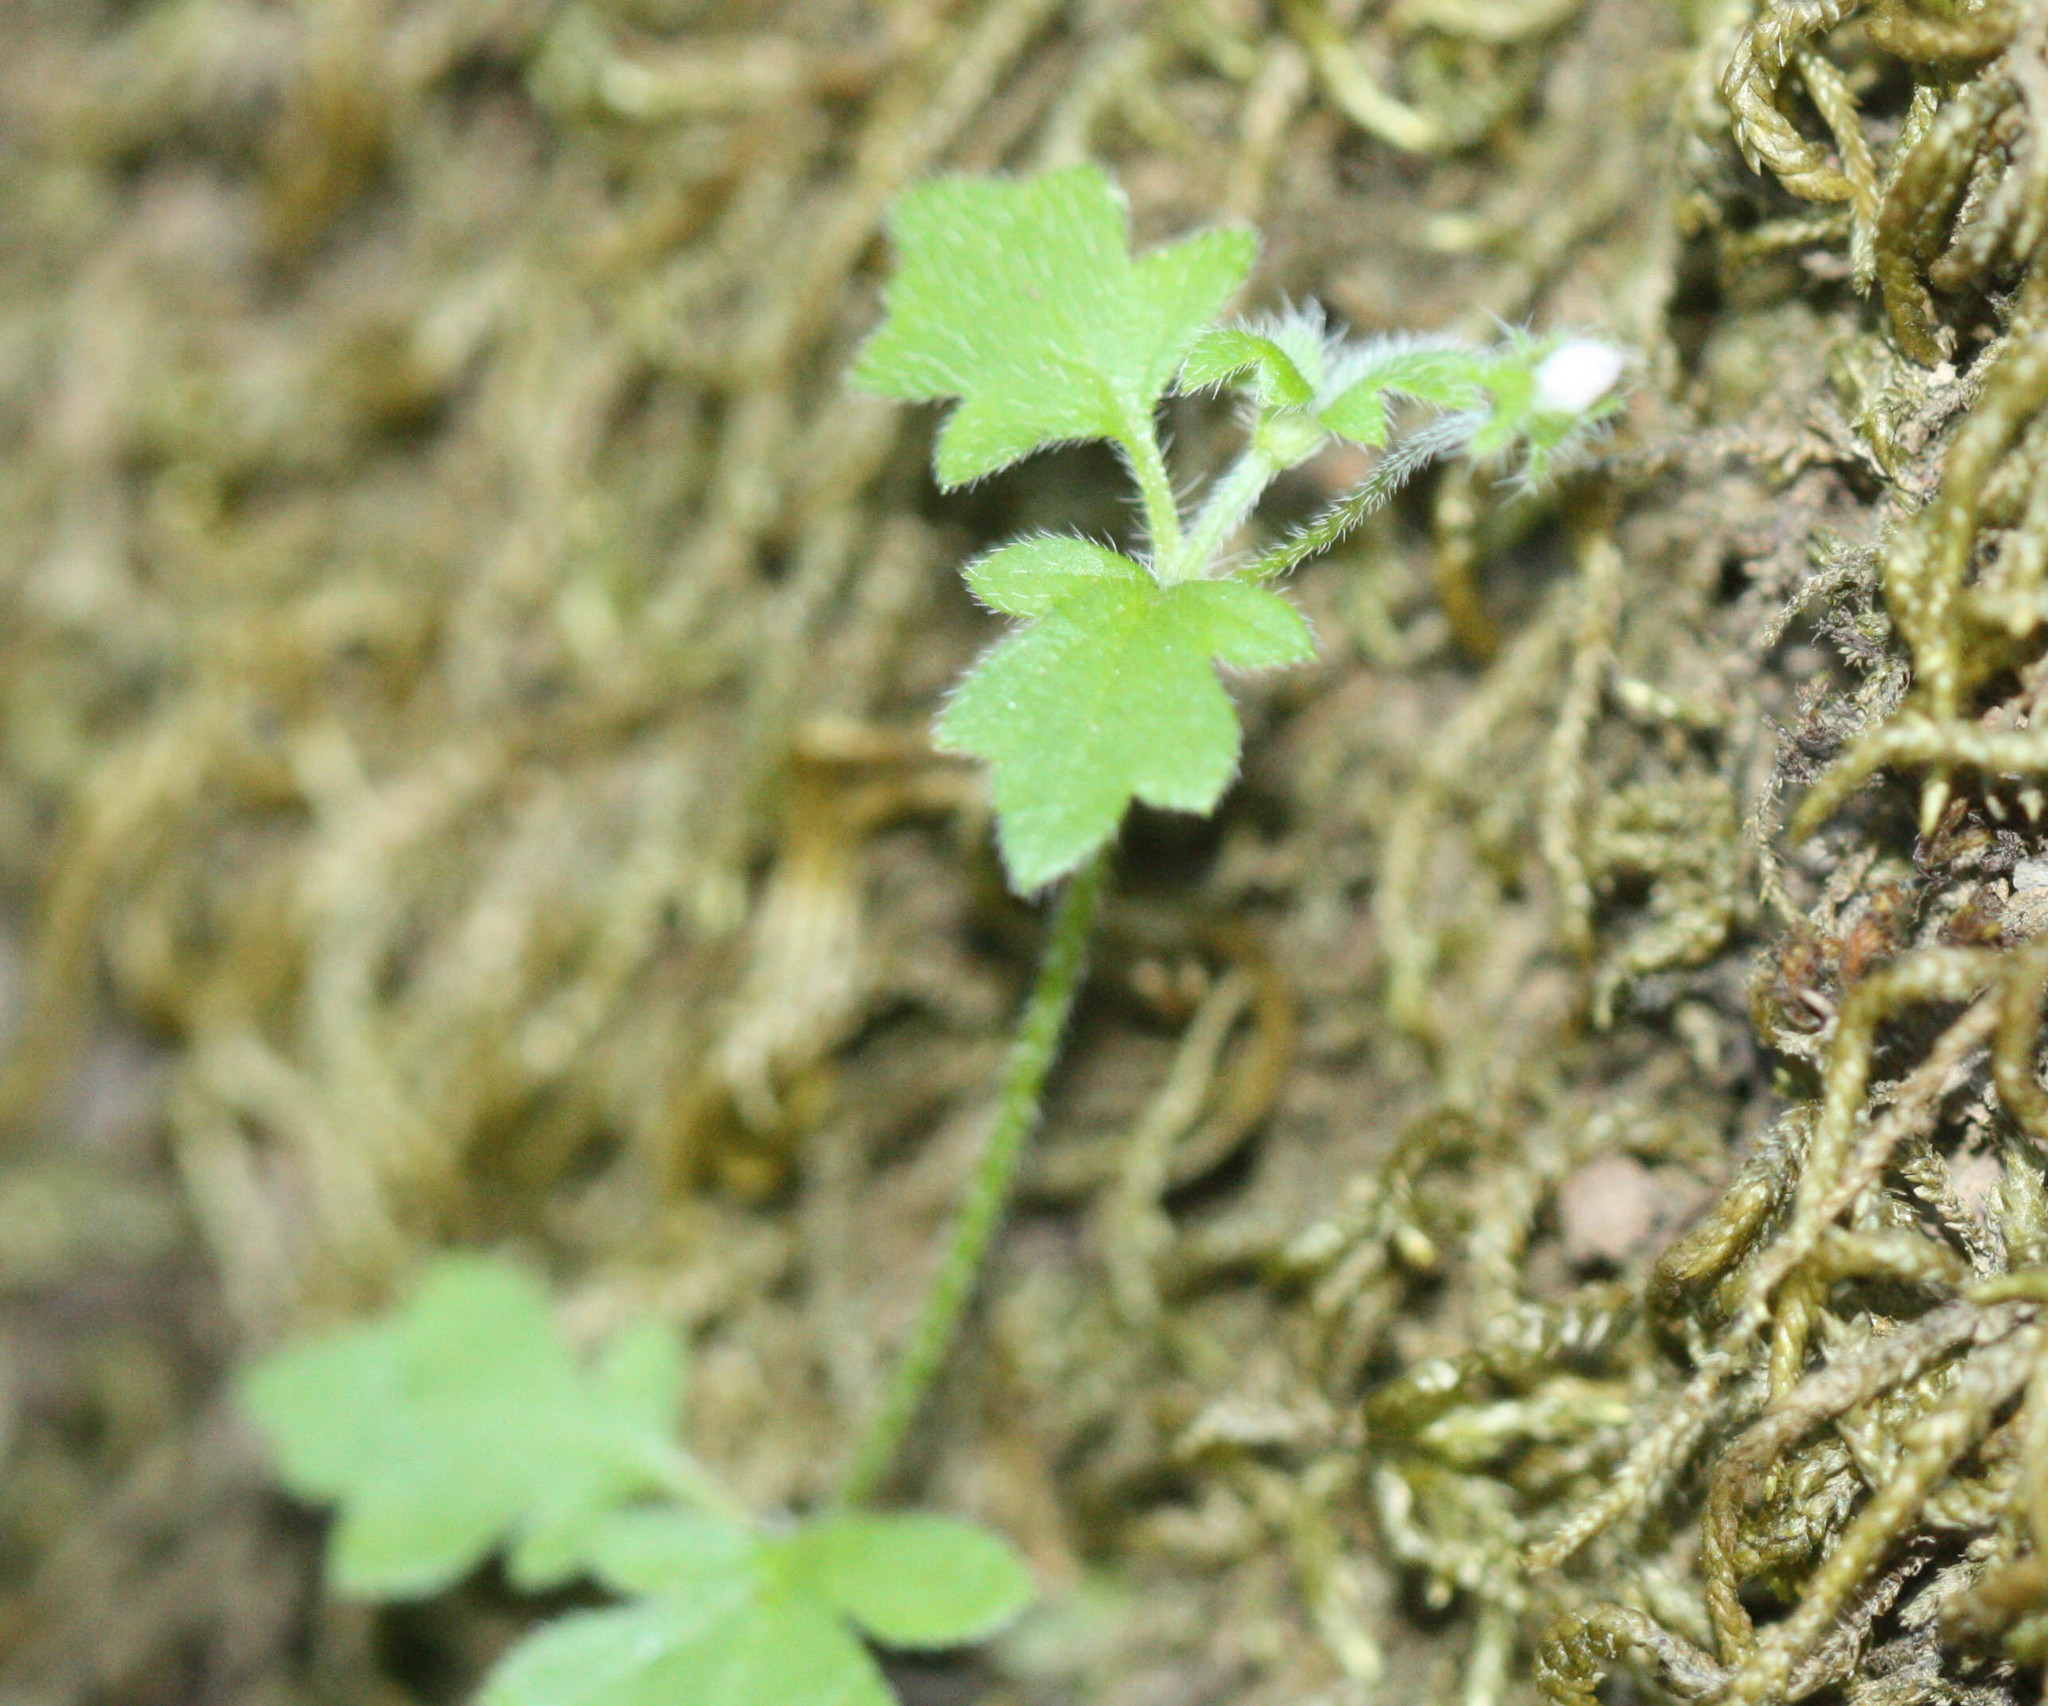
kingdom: Plantae
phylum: Tracheophyta
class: Magnoliopsida
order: Boraginales
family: Hydrophyllaceae
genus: Nemophila
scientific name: Nemophila parviflora
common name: Small-flowered baby-blue-eyes
